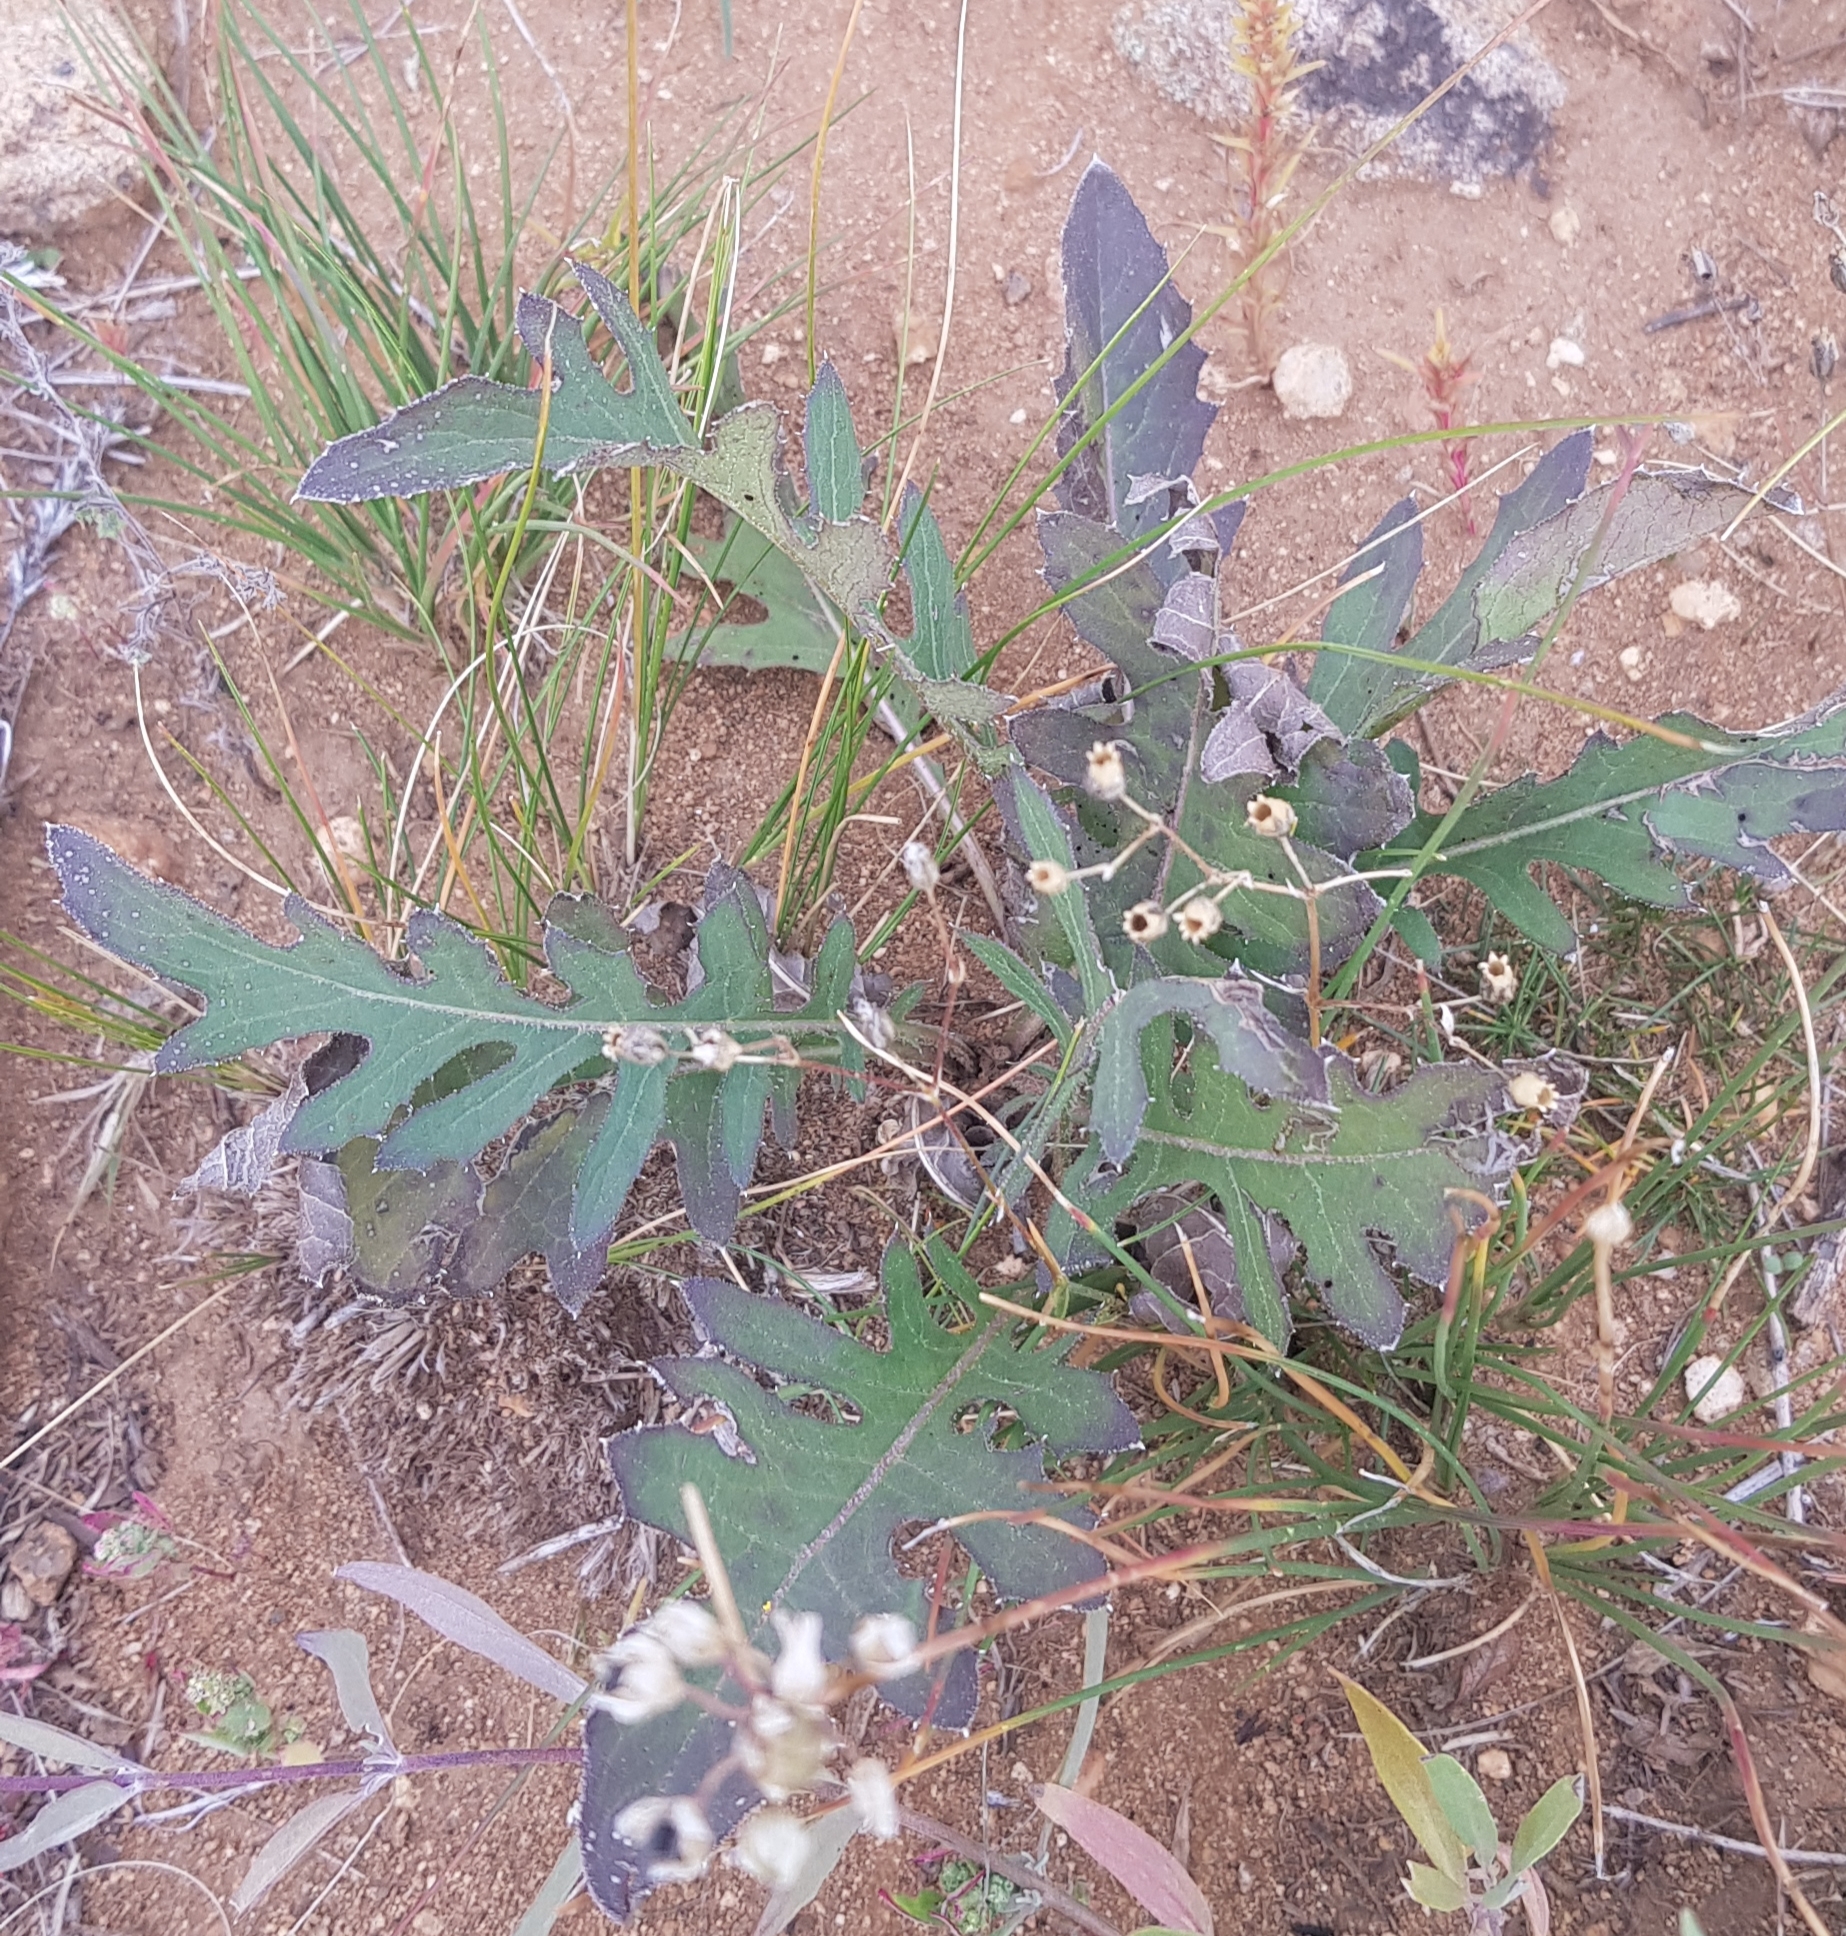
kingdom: Plantae
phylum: Tracheophyta
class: Magnoliopsida
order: Asterales
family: Asteraceae
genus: Klasea
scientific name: Klasea centauroides
